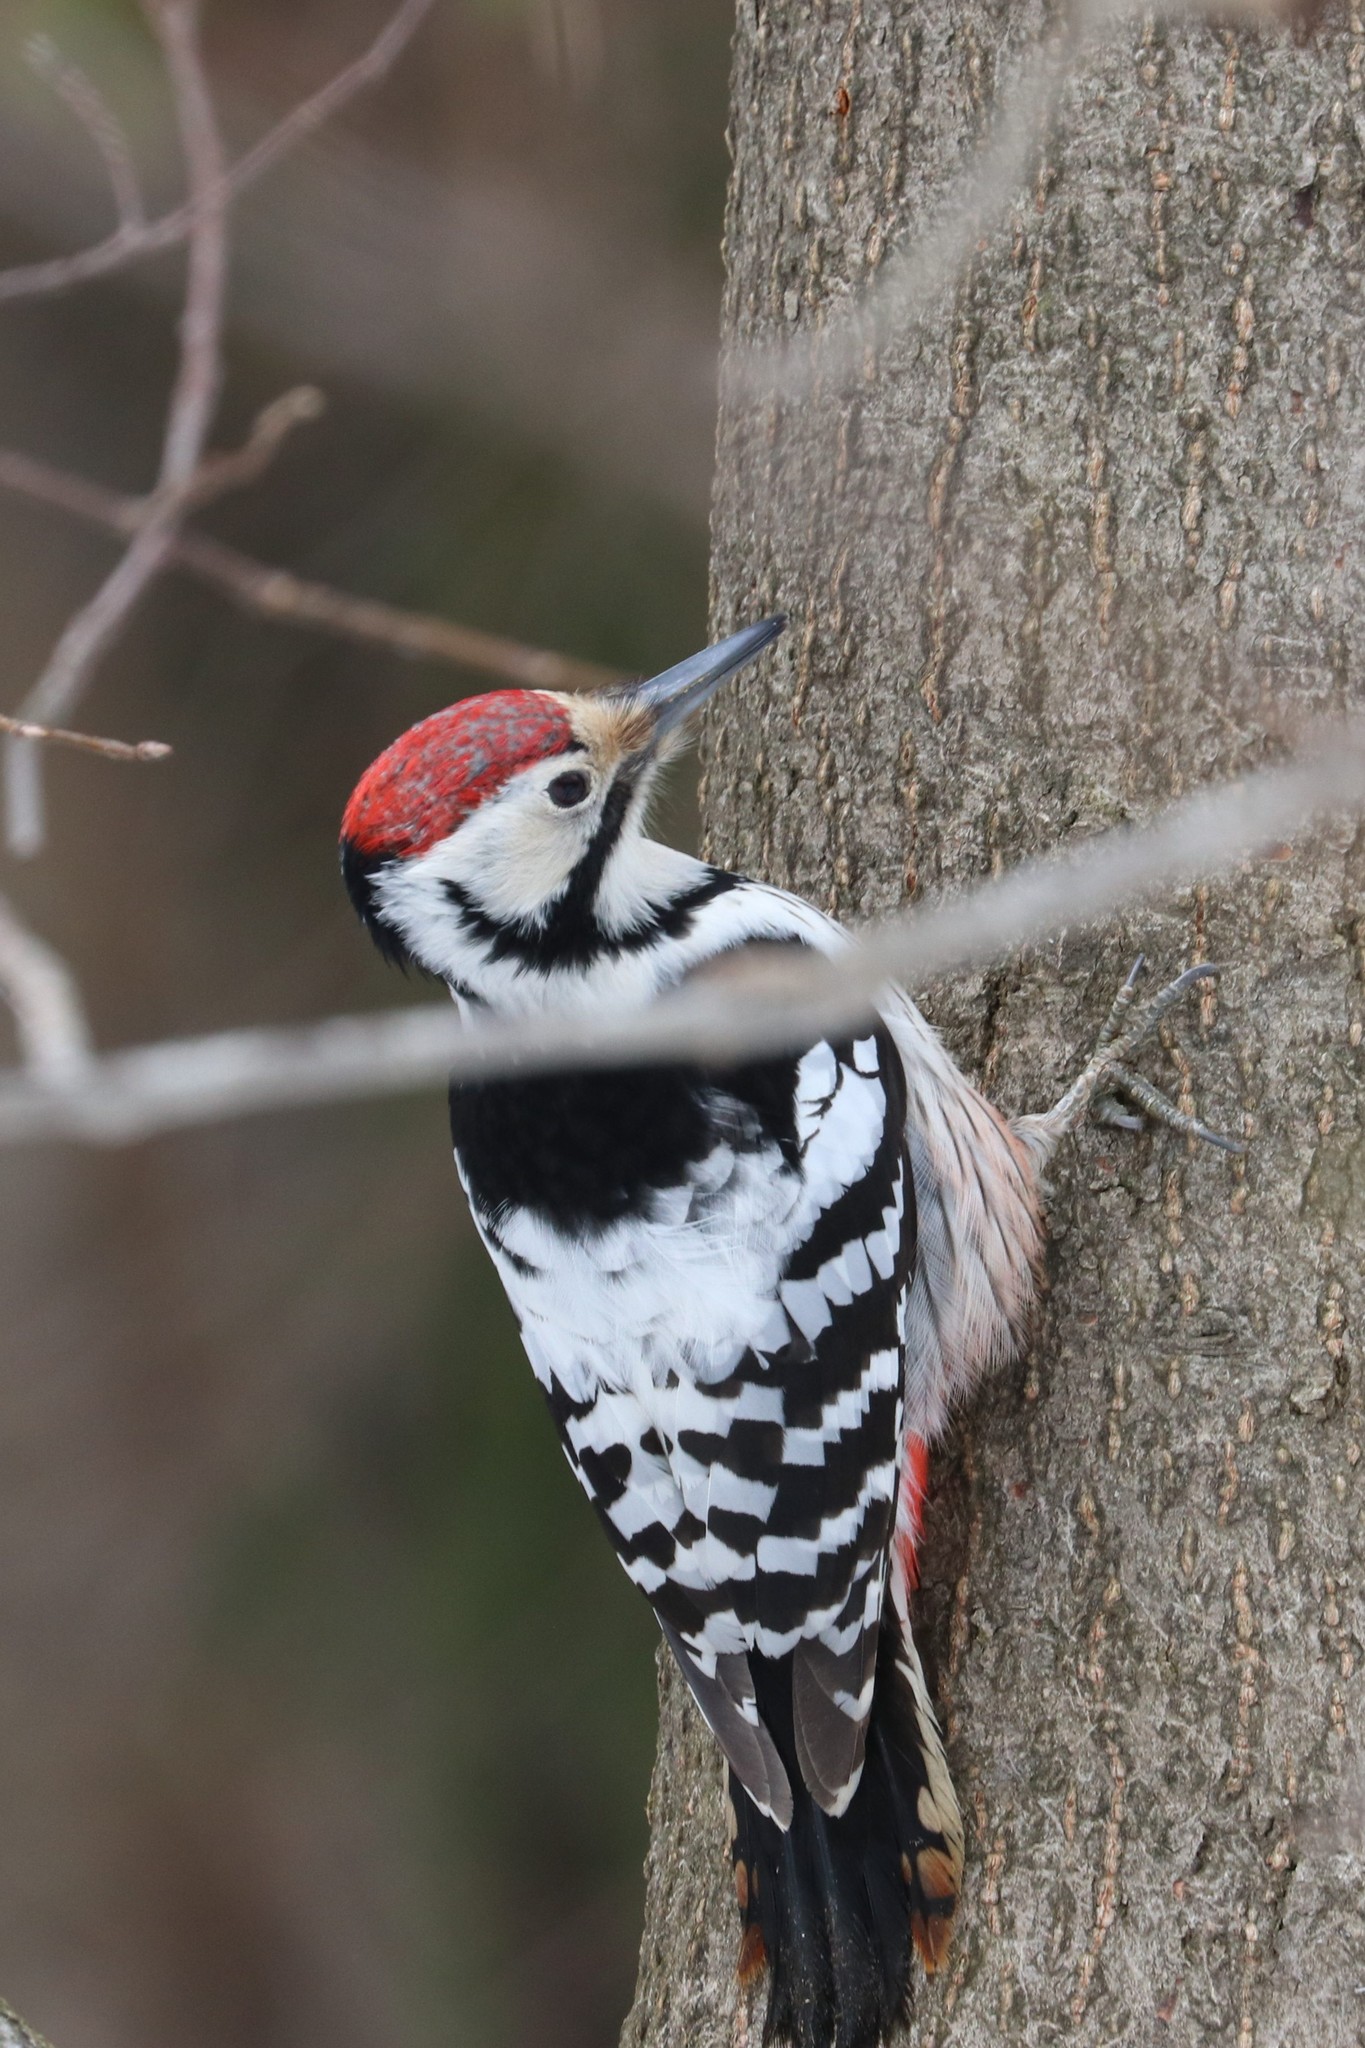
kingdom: Animalia
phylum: Chordata
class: Aves
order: Piciformes
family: Picidae
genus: Dendrocopos
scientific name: Dendrocopos leucotos
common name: White-backed woodpecker
